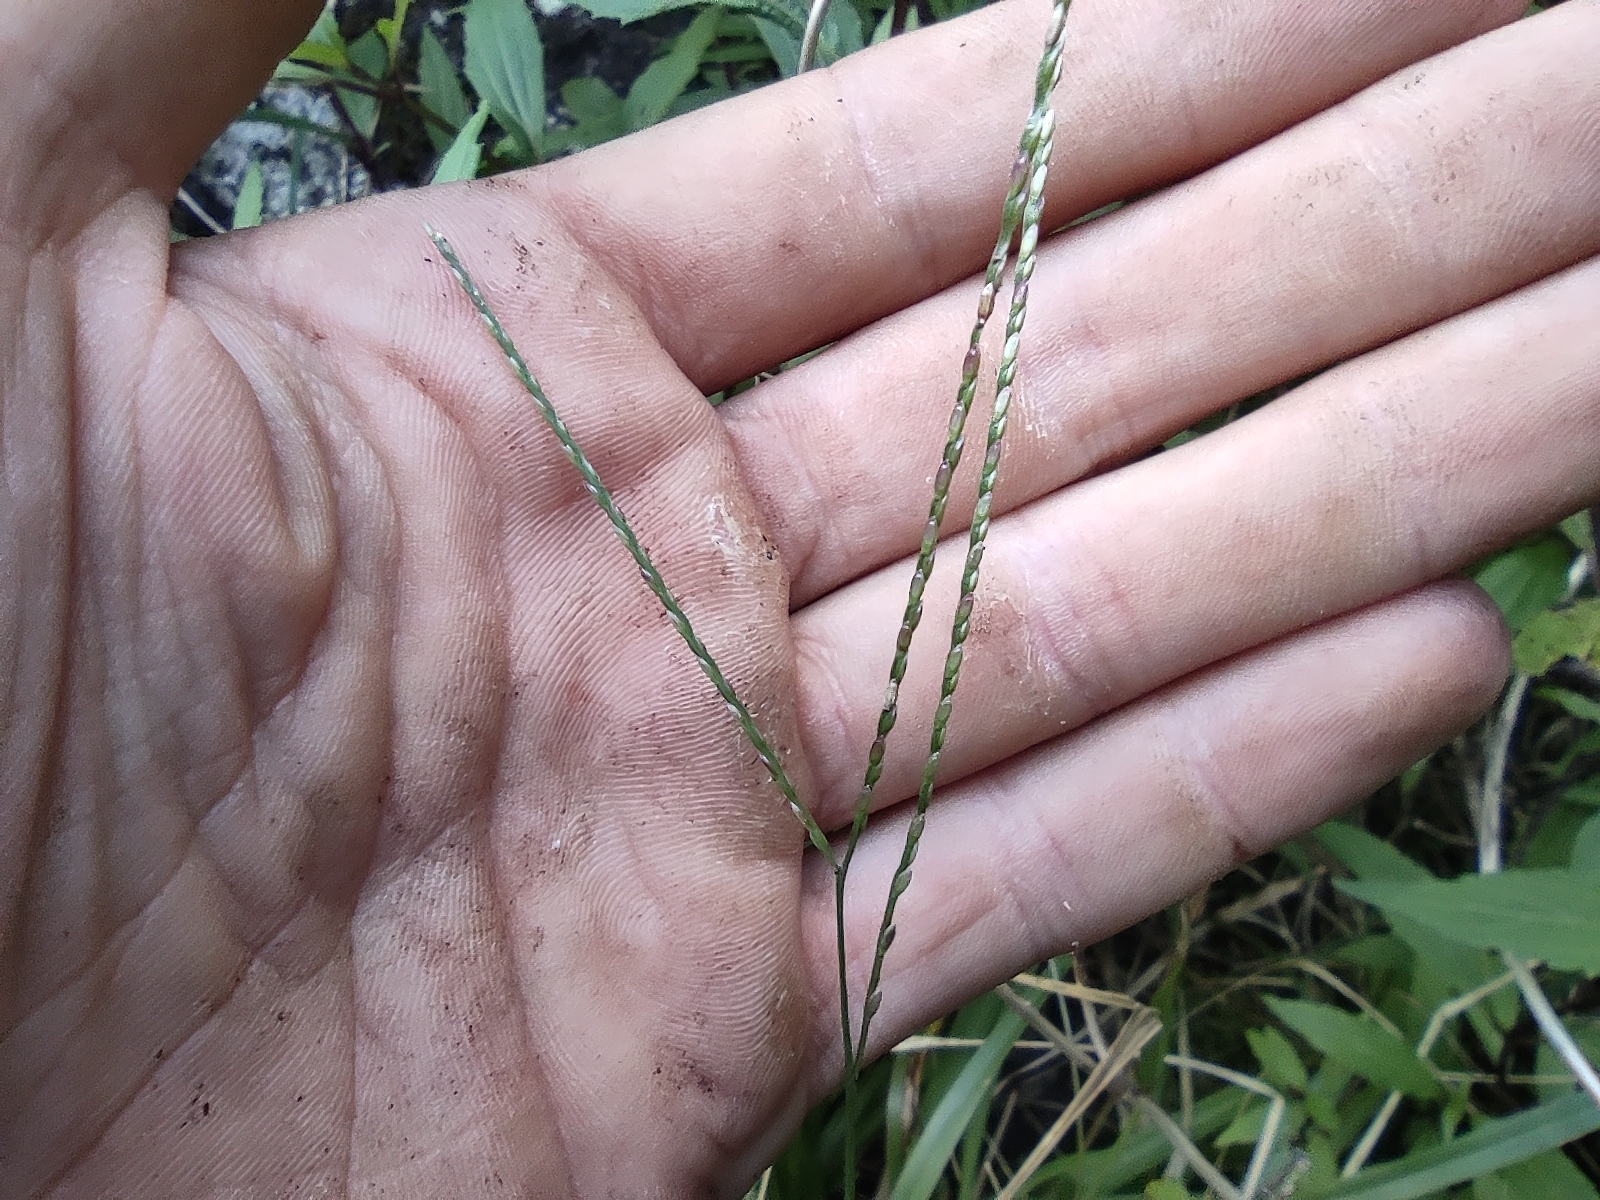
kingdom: Plantae
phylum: Tracheophyta
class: Liliopsida
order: Poales
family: Poaceae
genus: Axonopus
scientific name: Axonopus fissifolius
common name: Common carpetgrass
